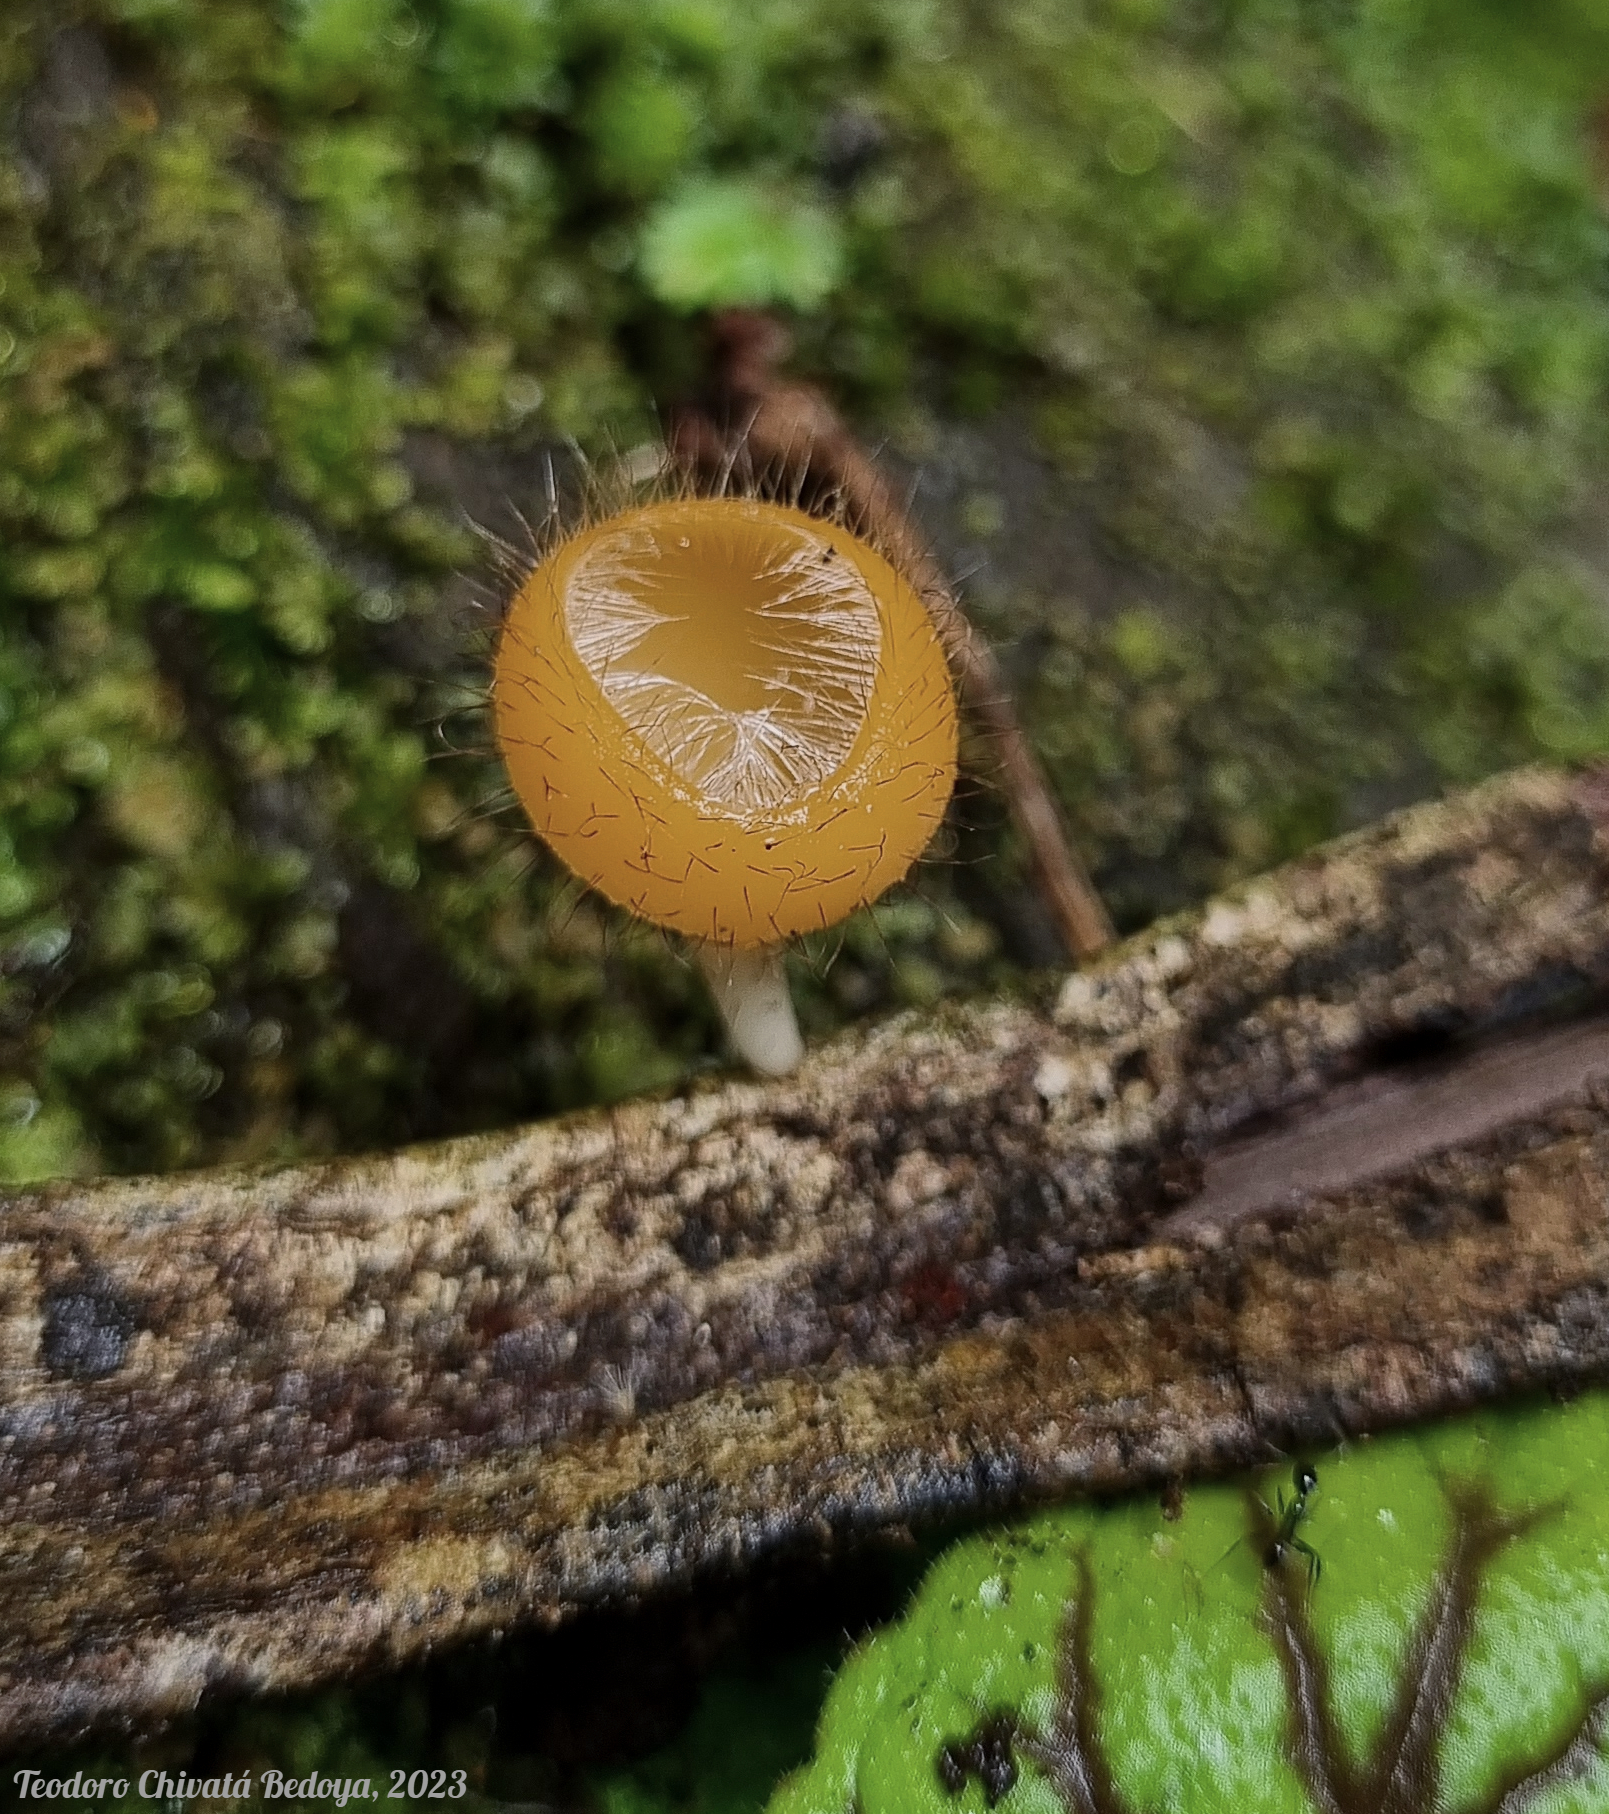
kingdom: Fungi
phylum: Ascomycota
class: Pezizomycetes
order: Pezizales
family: Sarcoscyphaceae
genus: Cookeina
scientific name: Cookeina tricholoma
